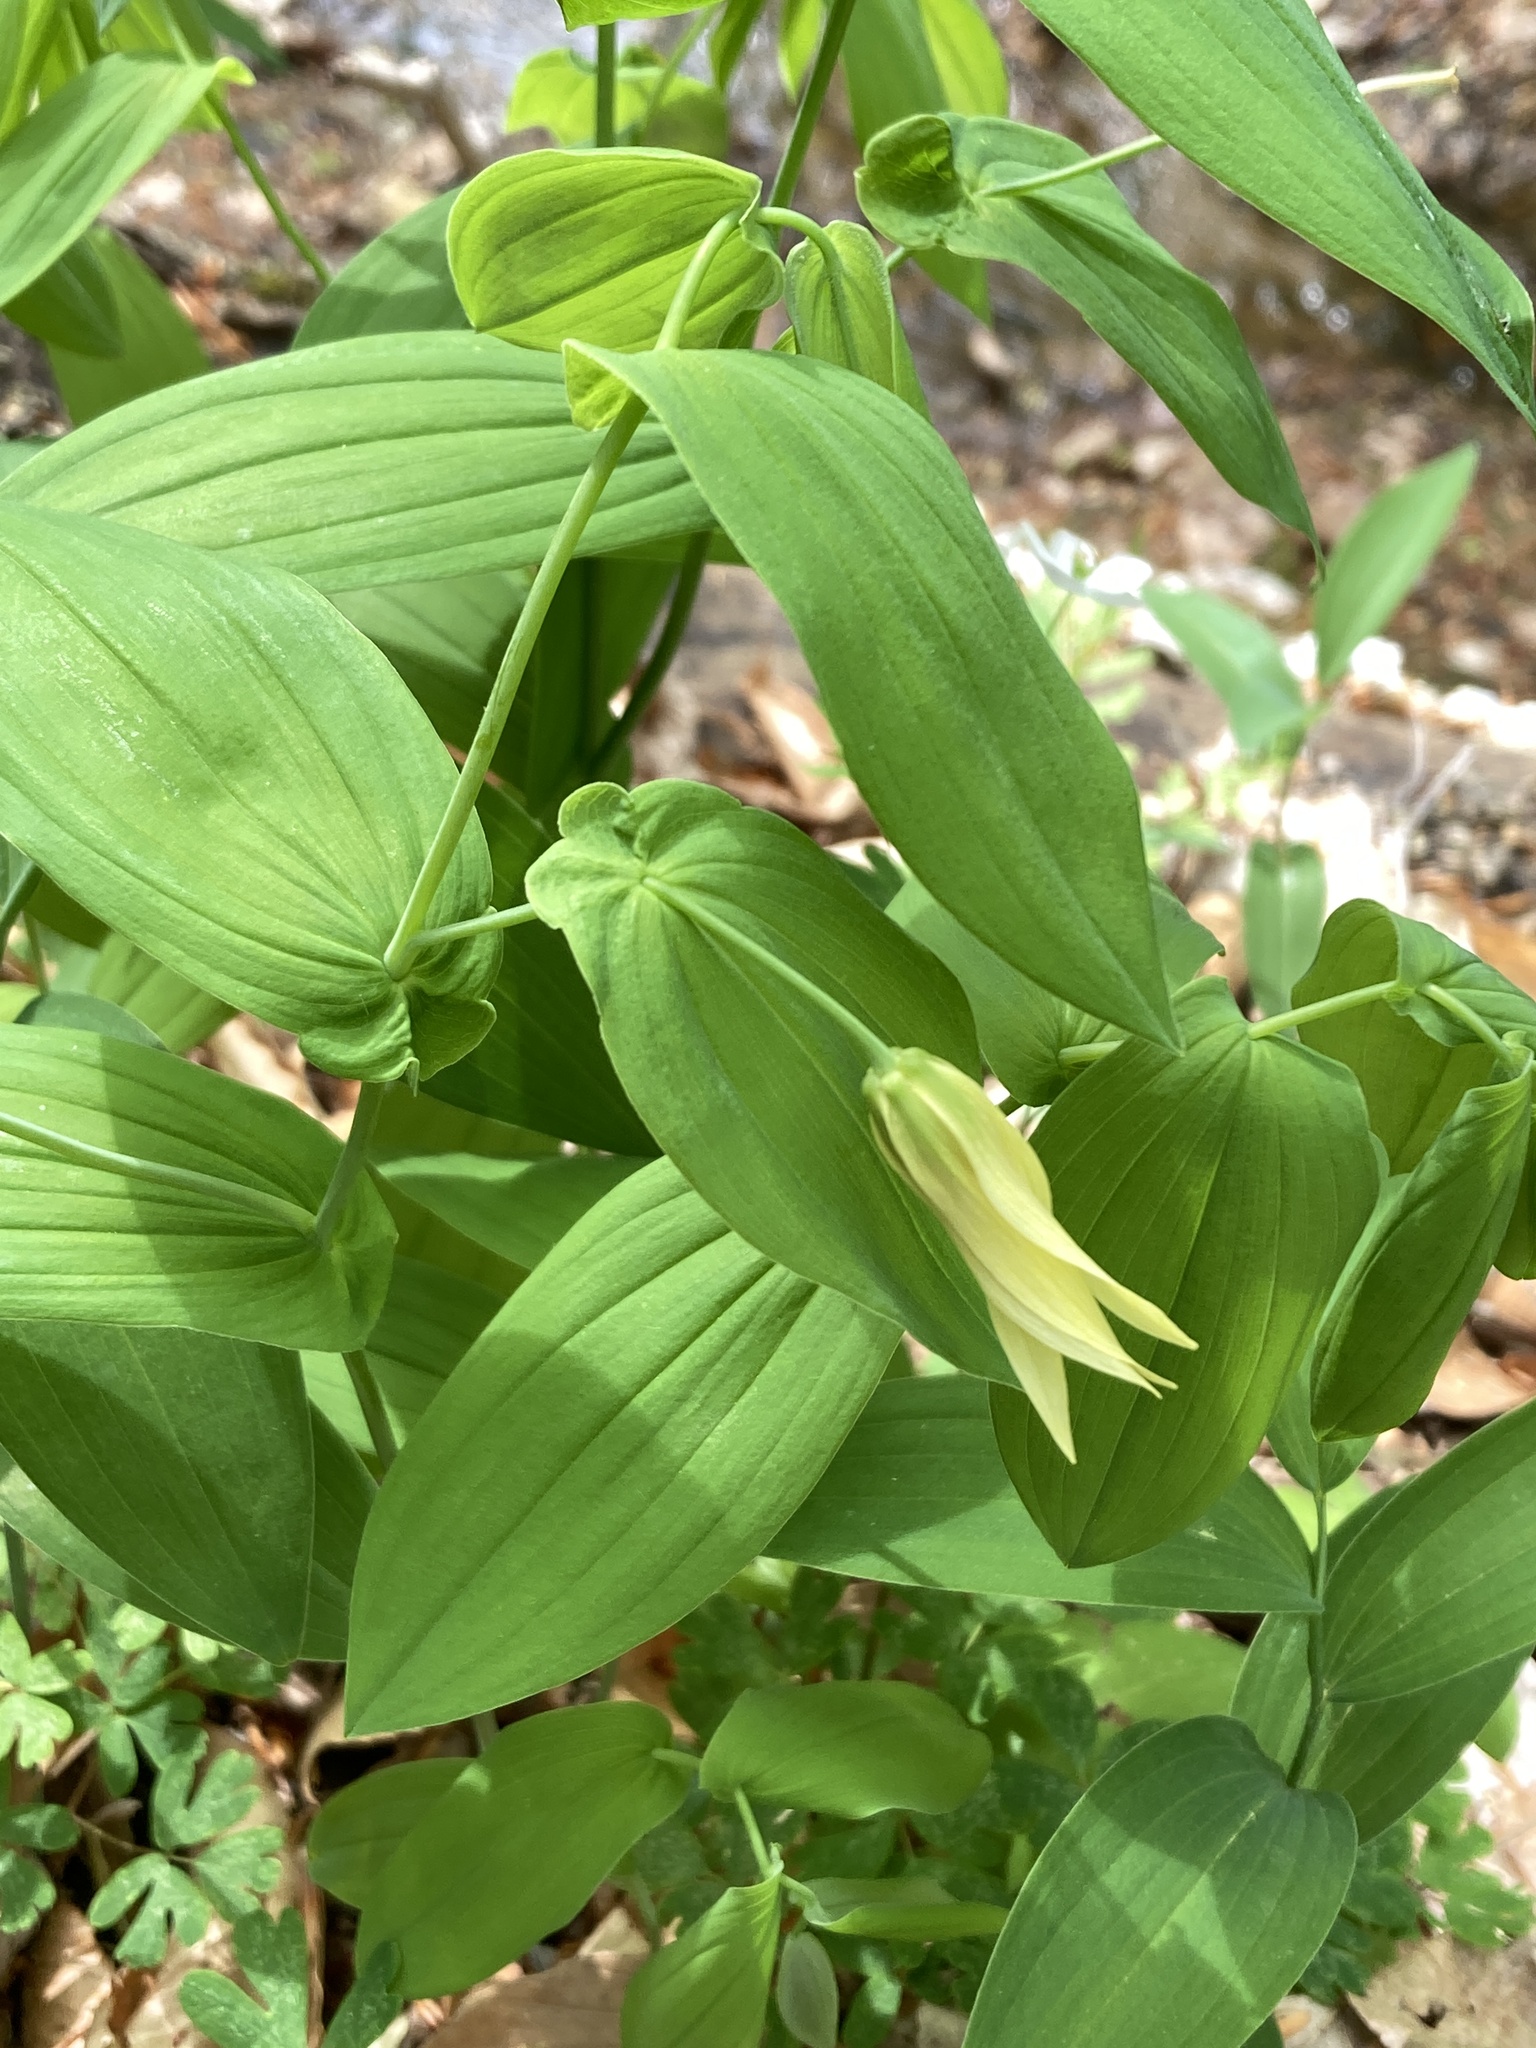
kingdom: Plantae
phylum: Tracheophyta
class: Liliopsida
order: Liliales
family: Colchicaceae
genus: Uvularia
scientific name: Uvularia grandiflora
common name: Bellwort
